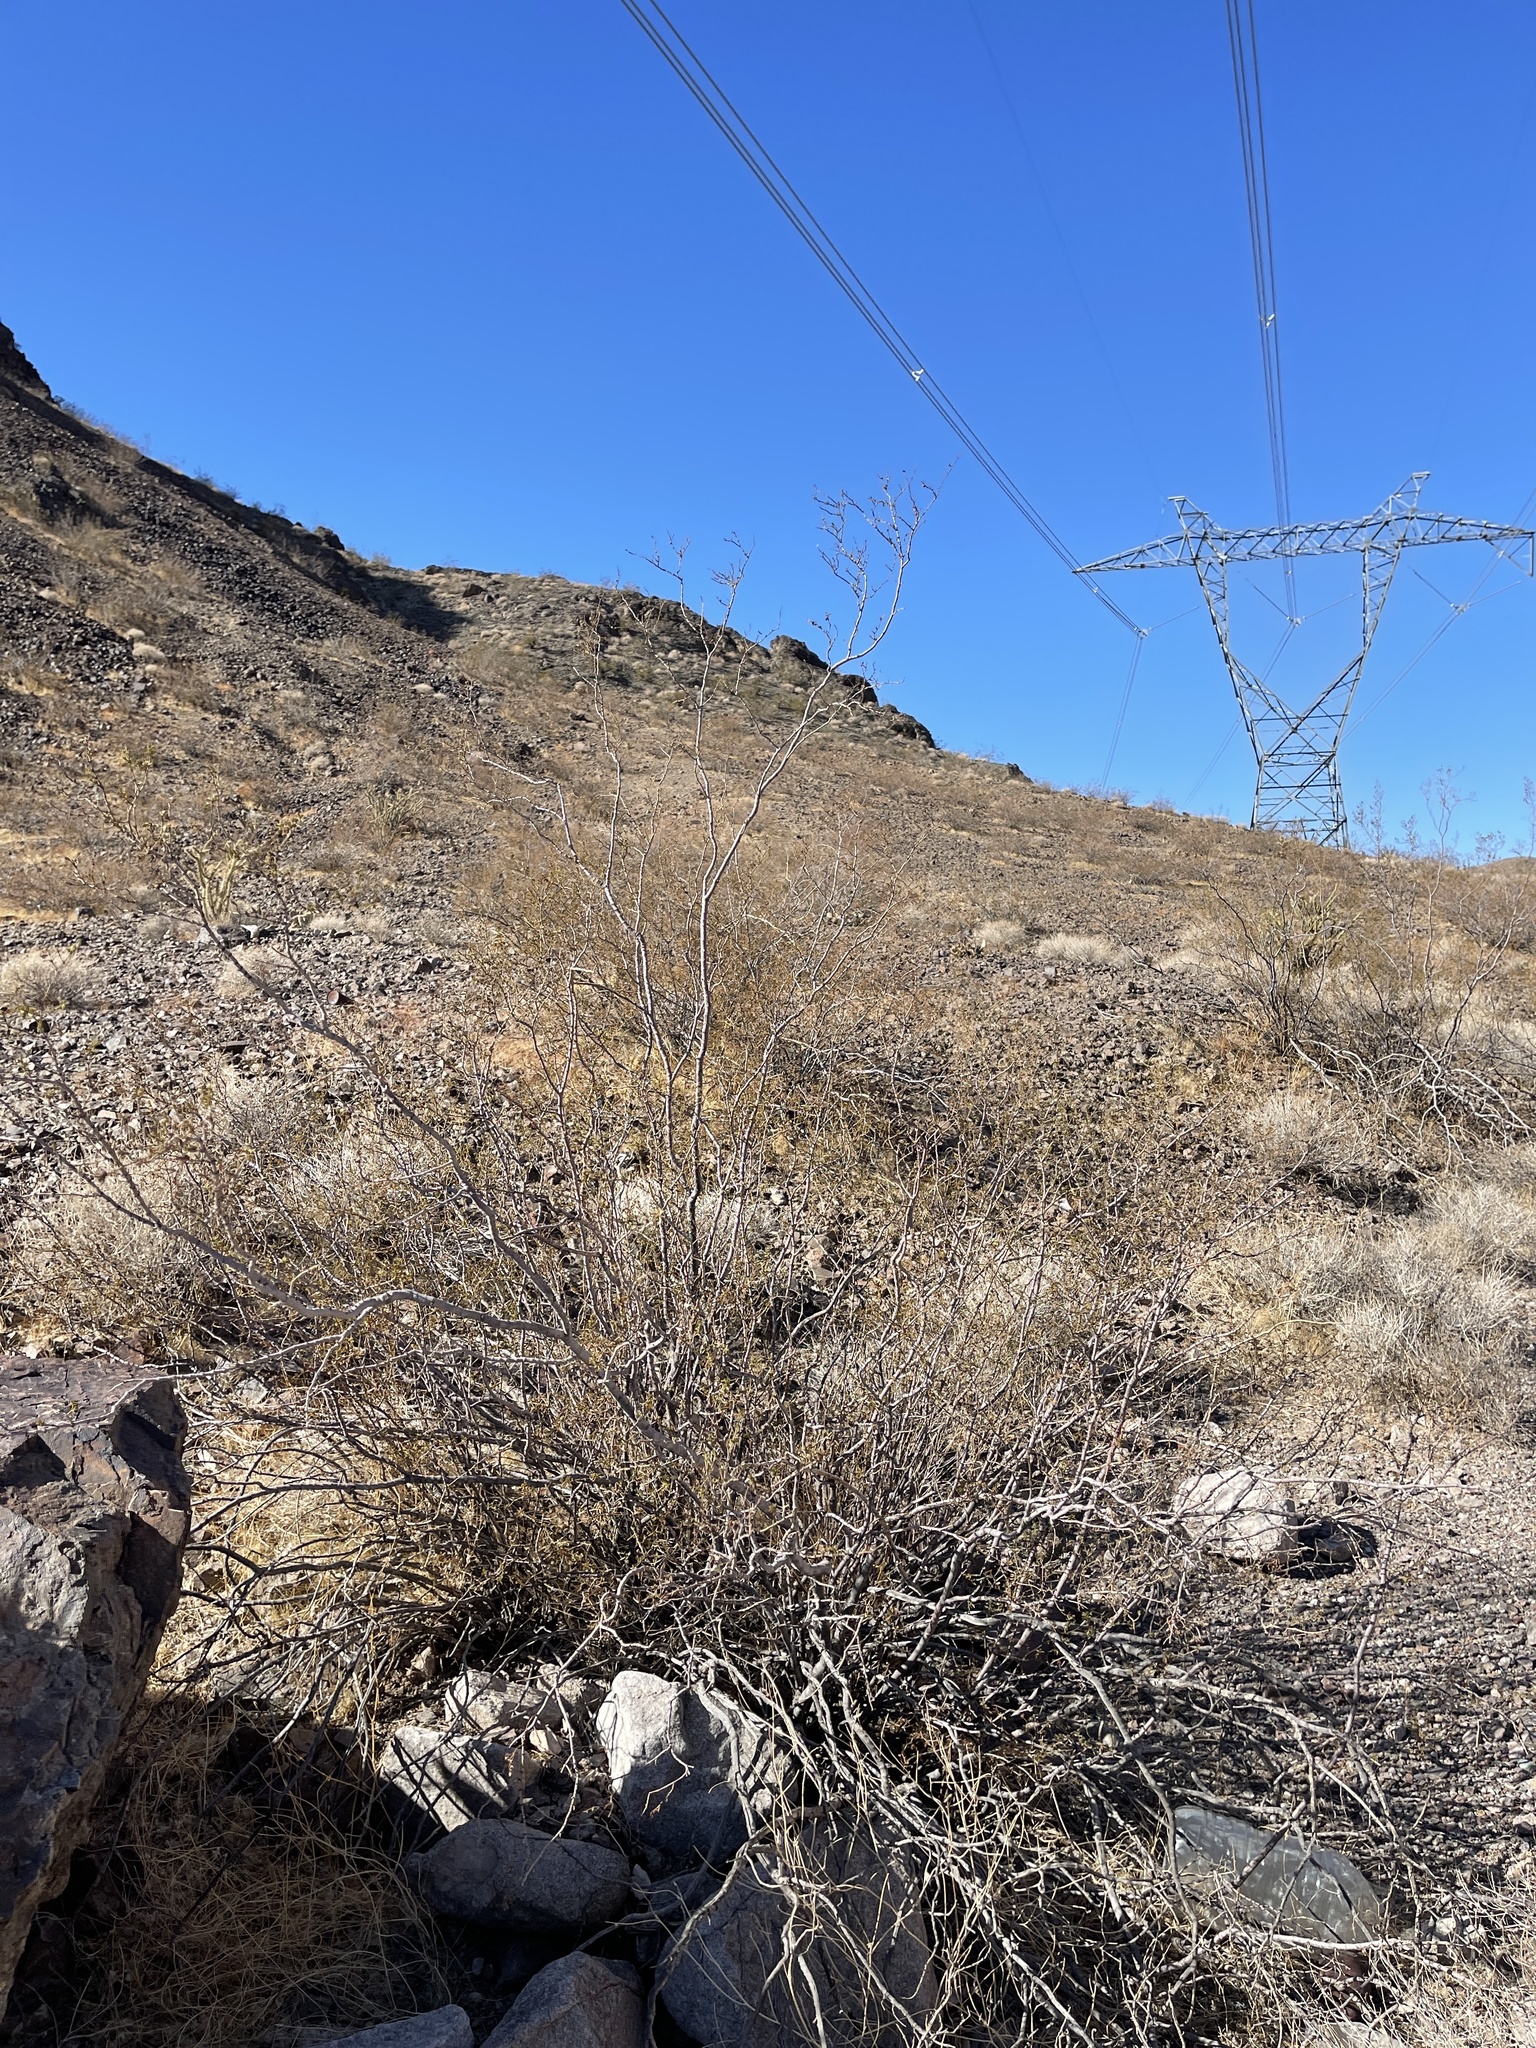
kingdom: Plantae
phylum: Tracheophyta
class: Magnoliopsida
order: Zygophyllales
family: Zygophyllaceae
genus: Larrea
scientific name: Larrea tridentata
